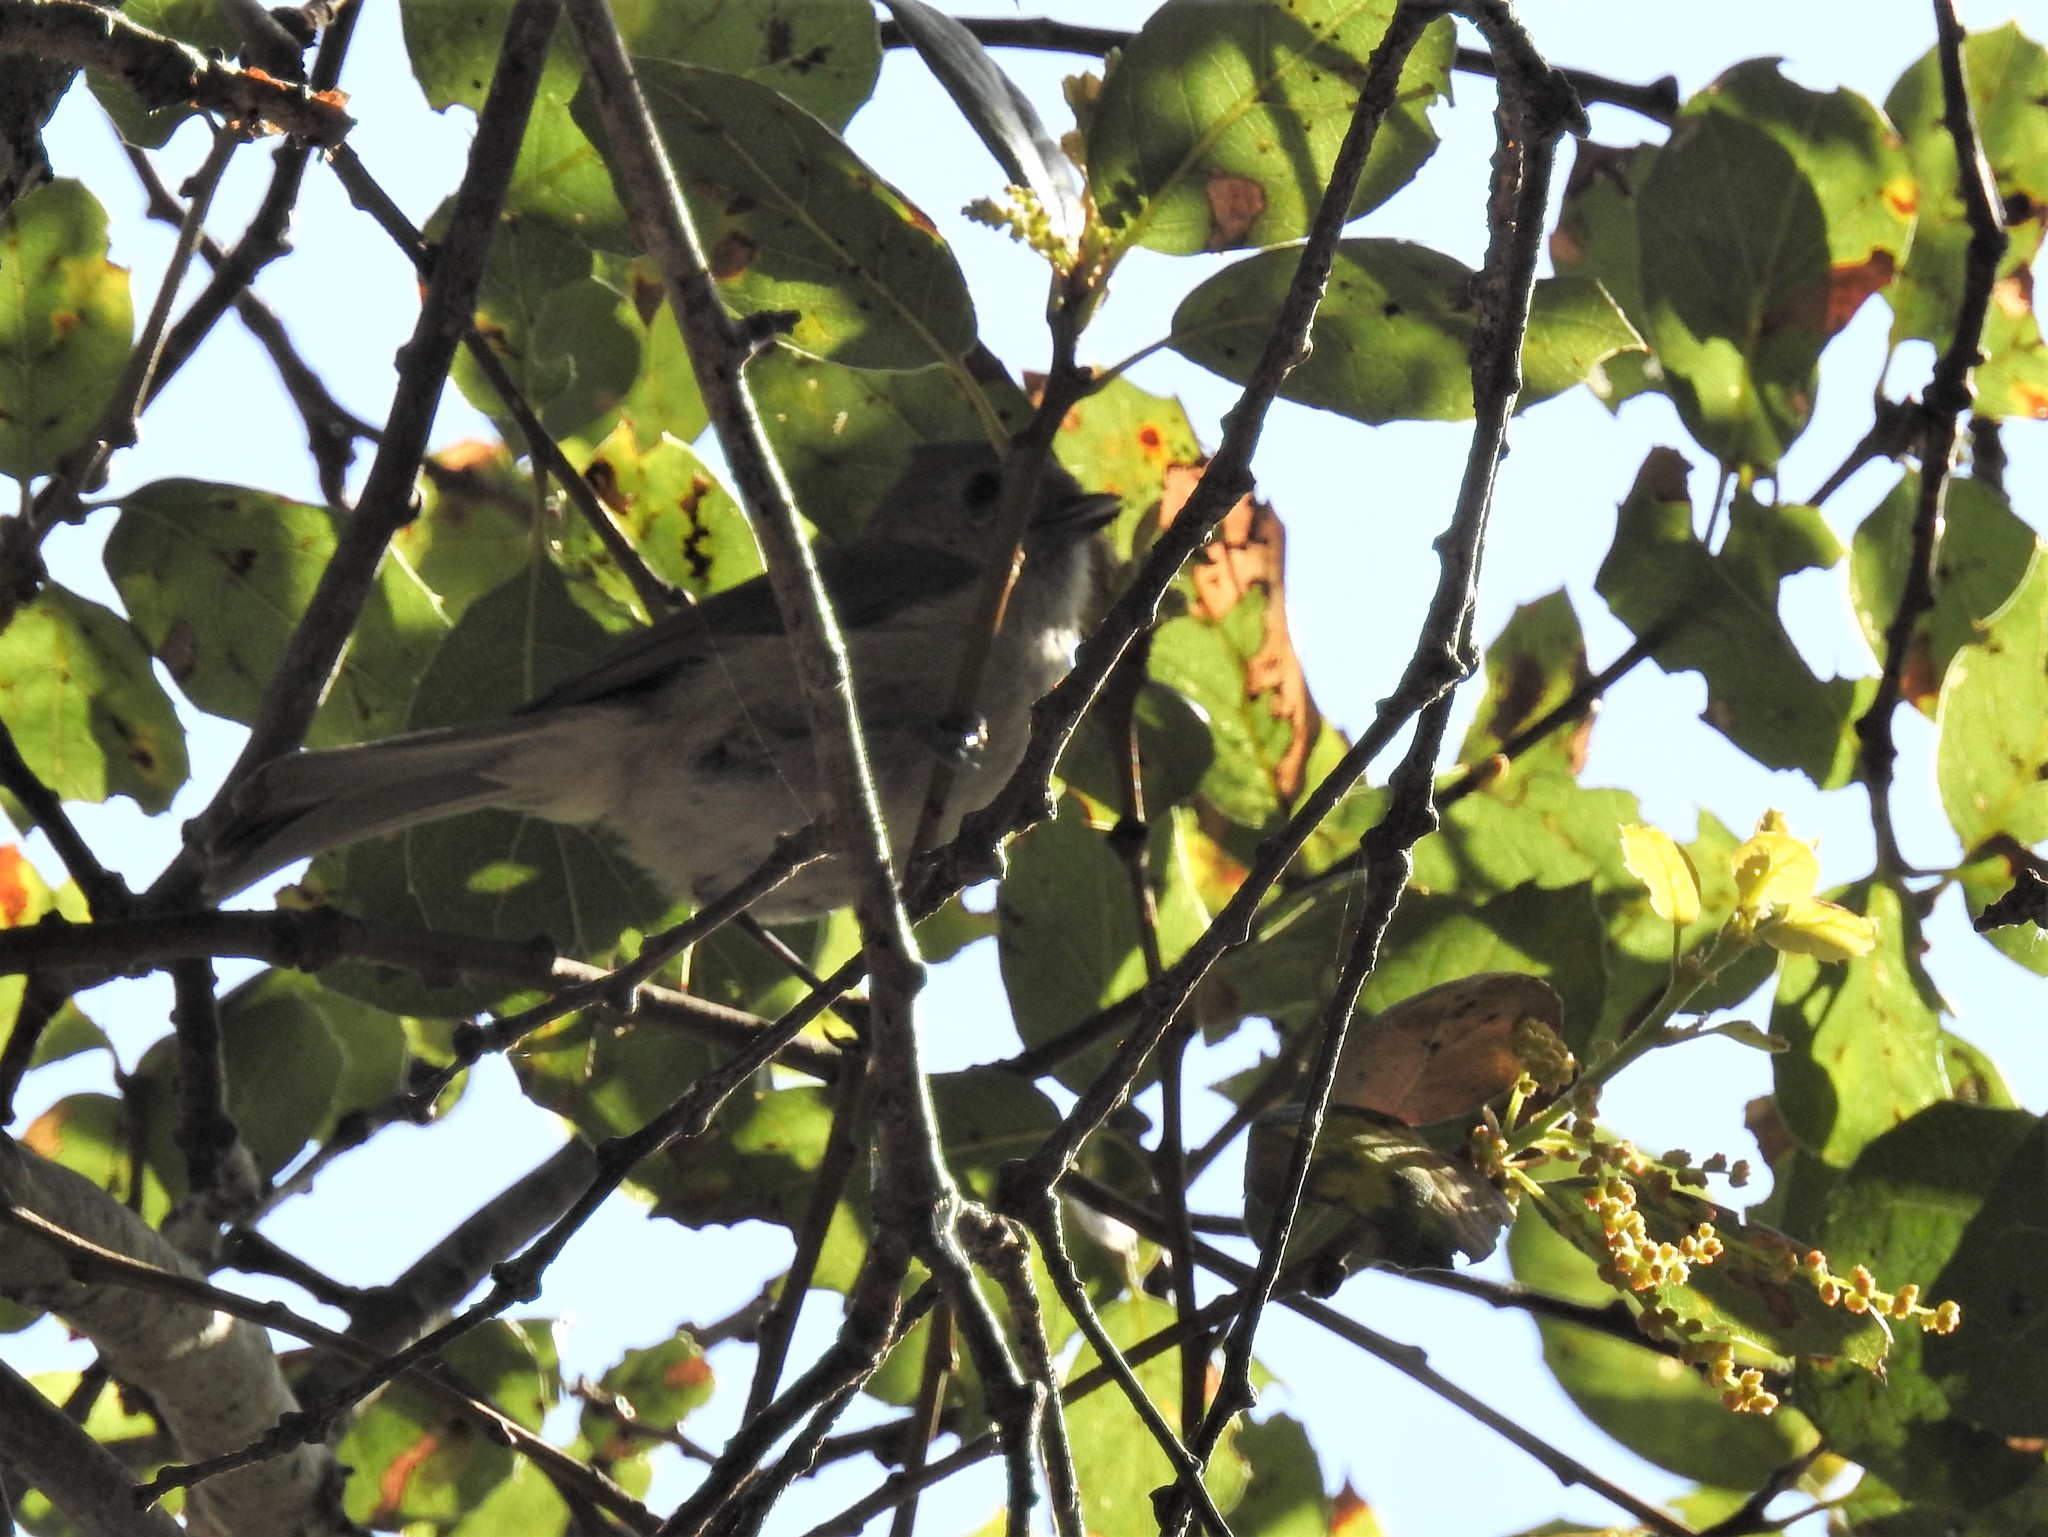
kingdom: Animalia
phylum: Chordata
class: Aves
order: Passeriformes
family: Paridae
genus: Baeolophus
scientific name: Baeolophus inornatus
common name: Oak titmouse
